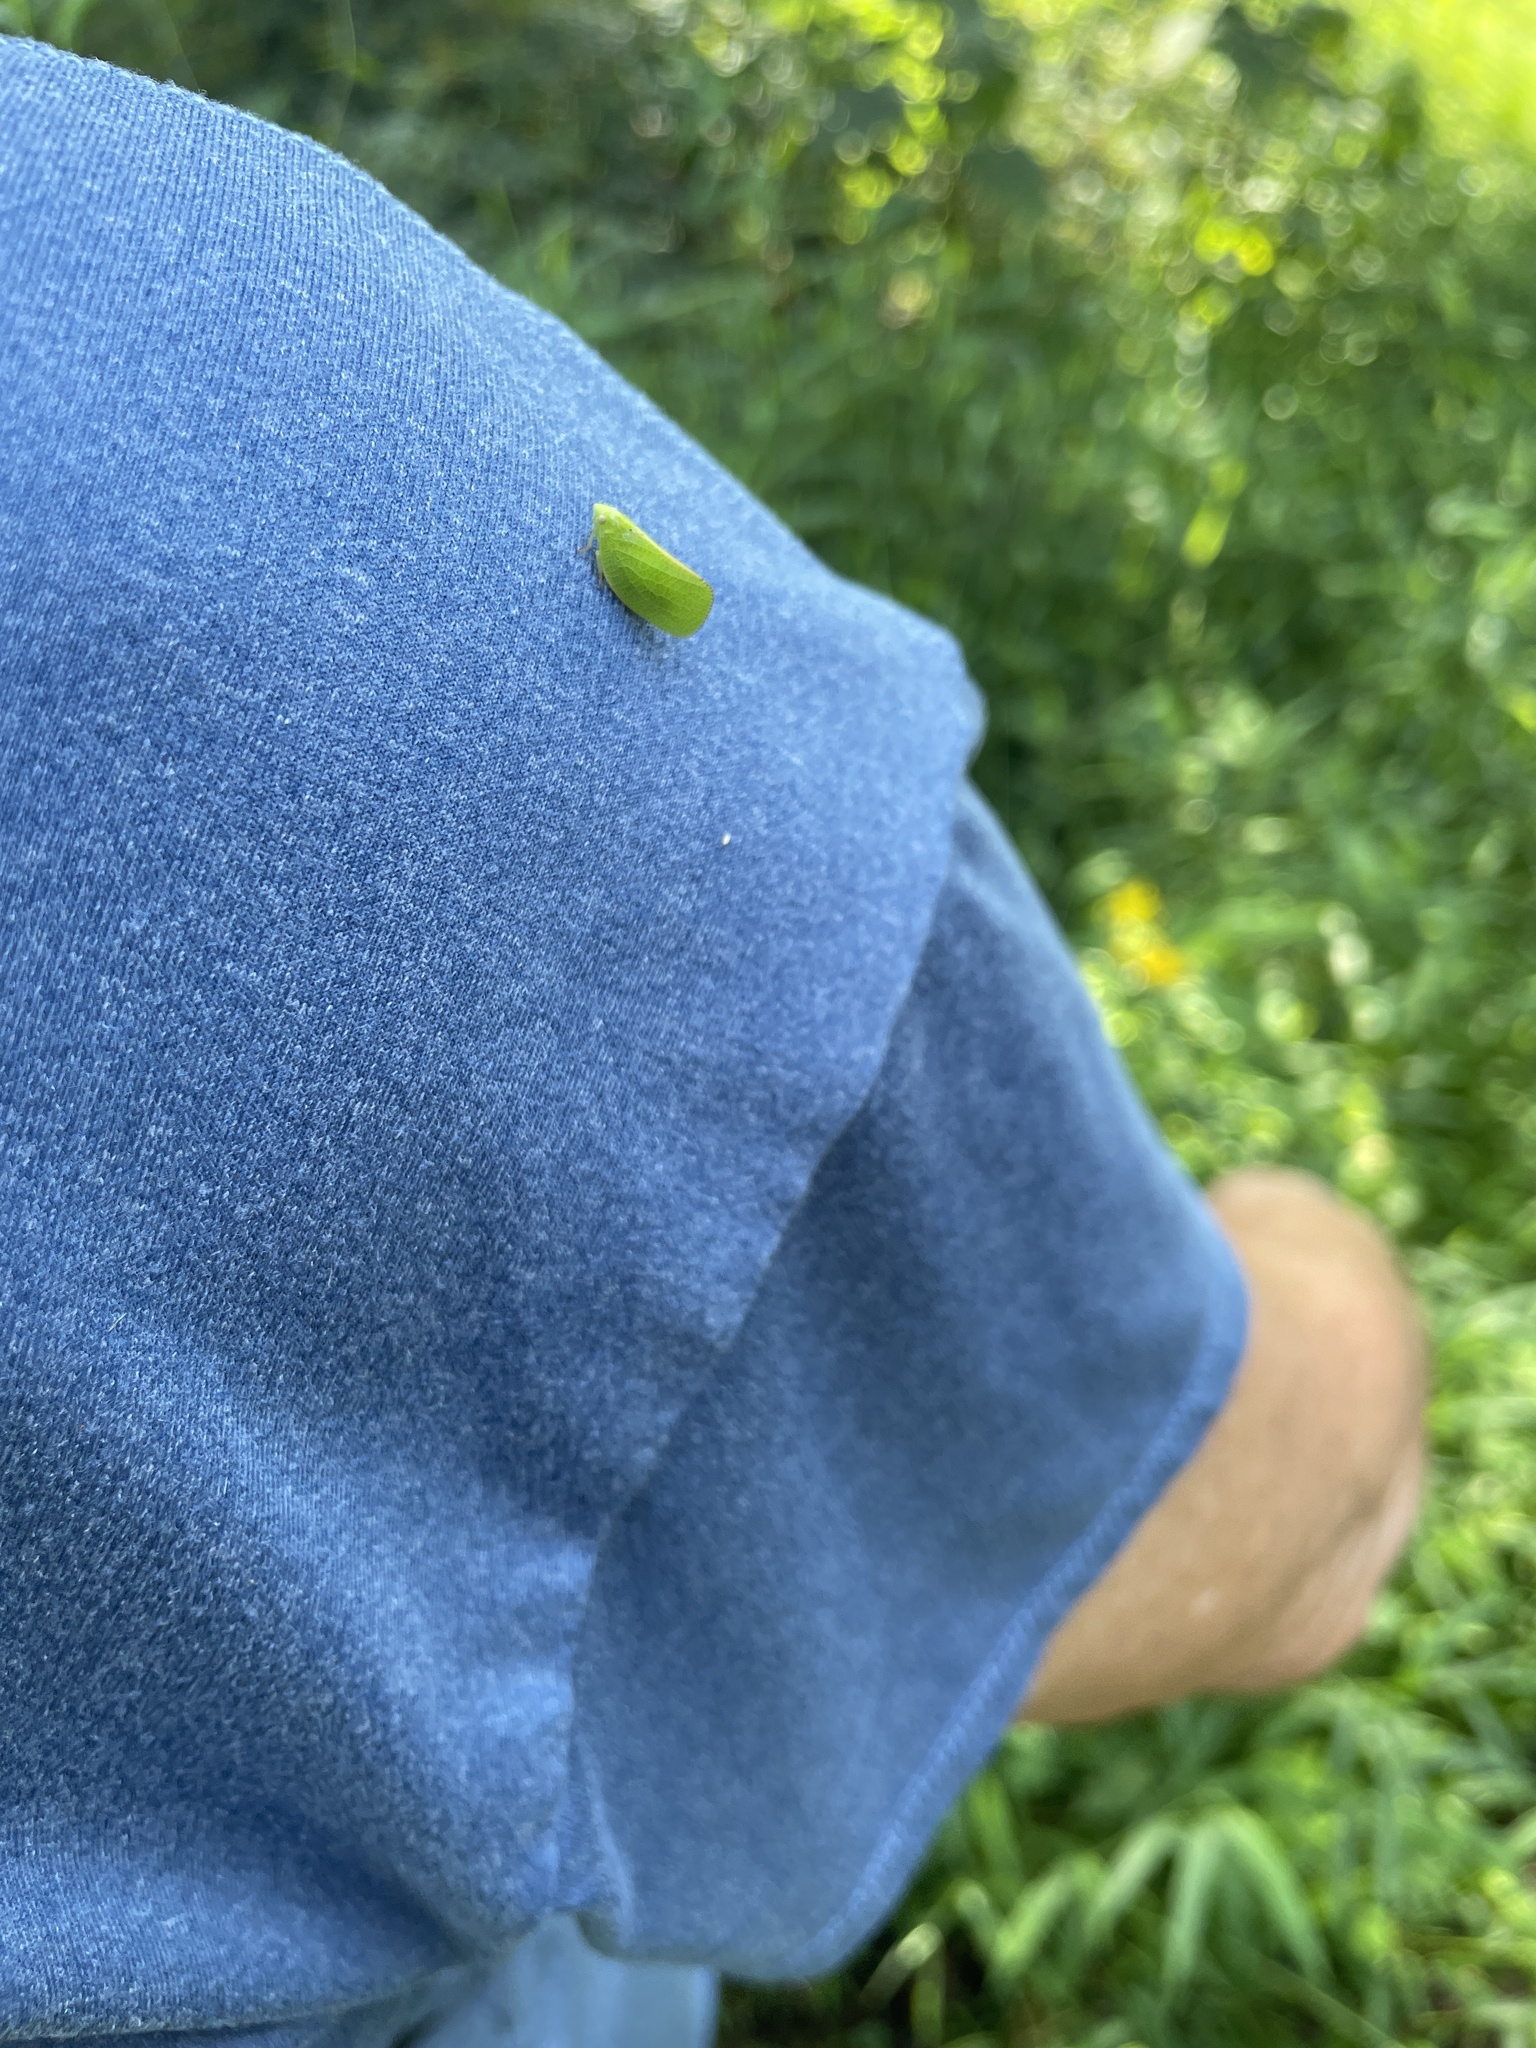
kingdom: Animalia
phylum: Arthropoda
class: Insecta
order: Hemiptera
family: Acanaloniidae
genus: Acanalonia
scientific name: Acanalonia conica
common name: Green cone-headed planthopper
